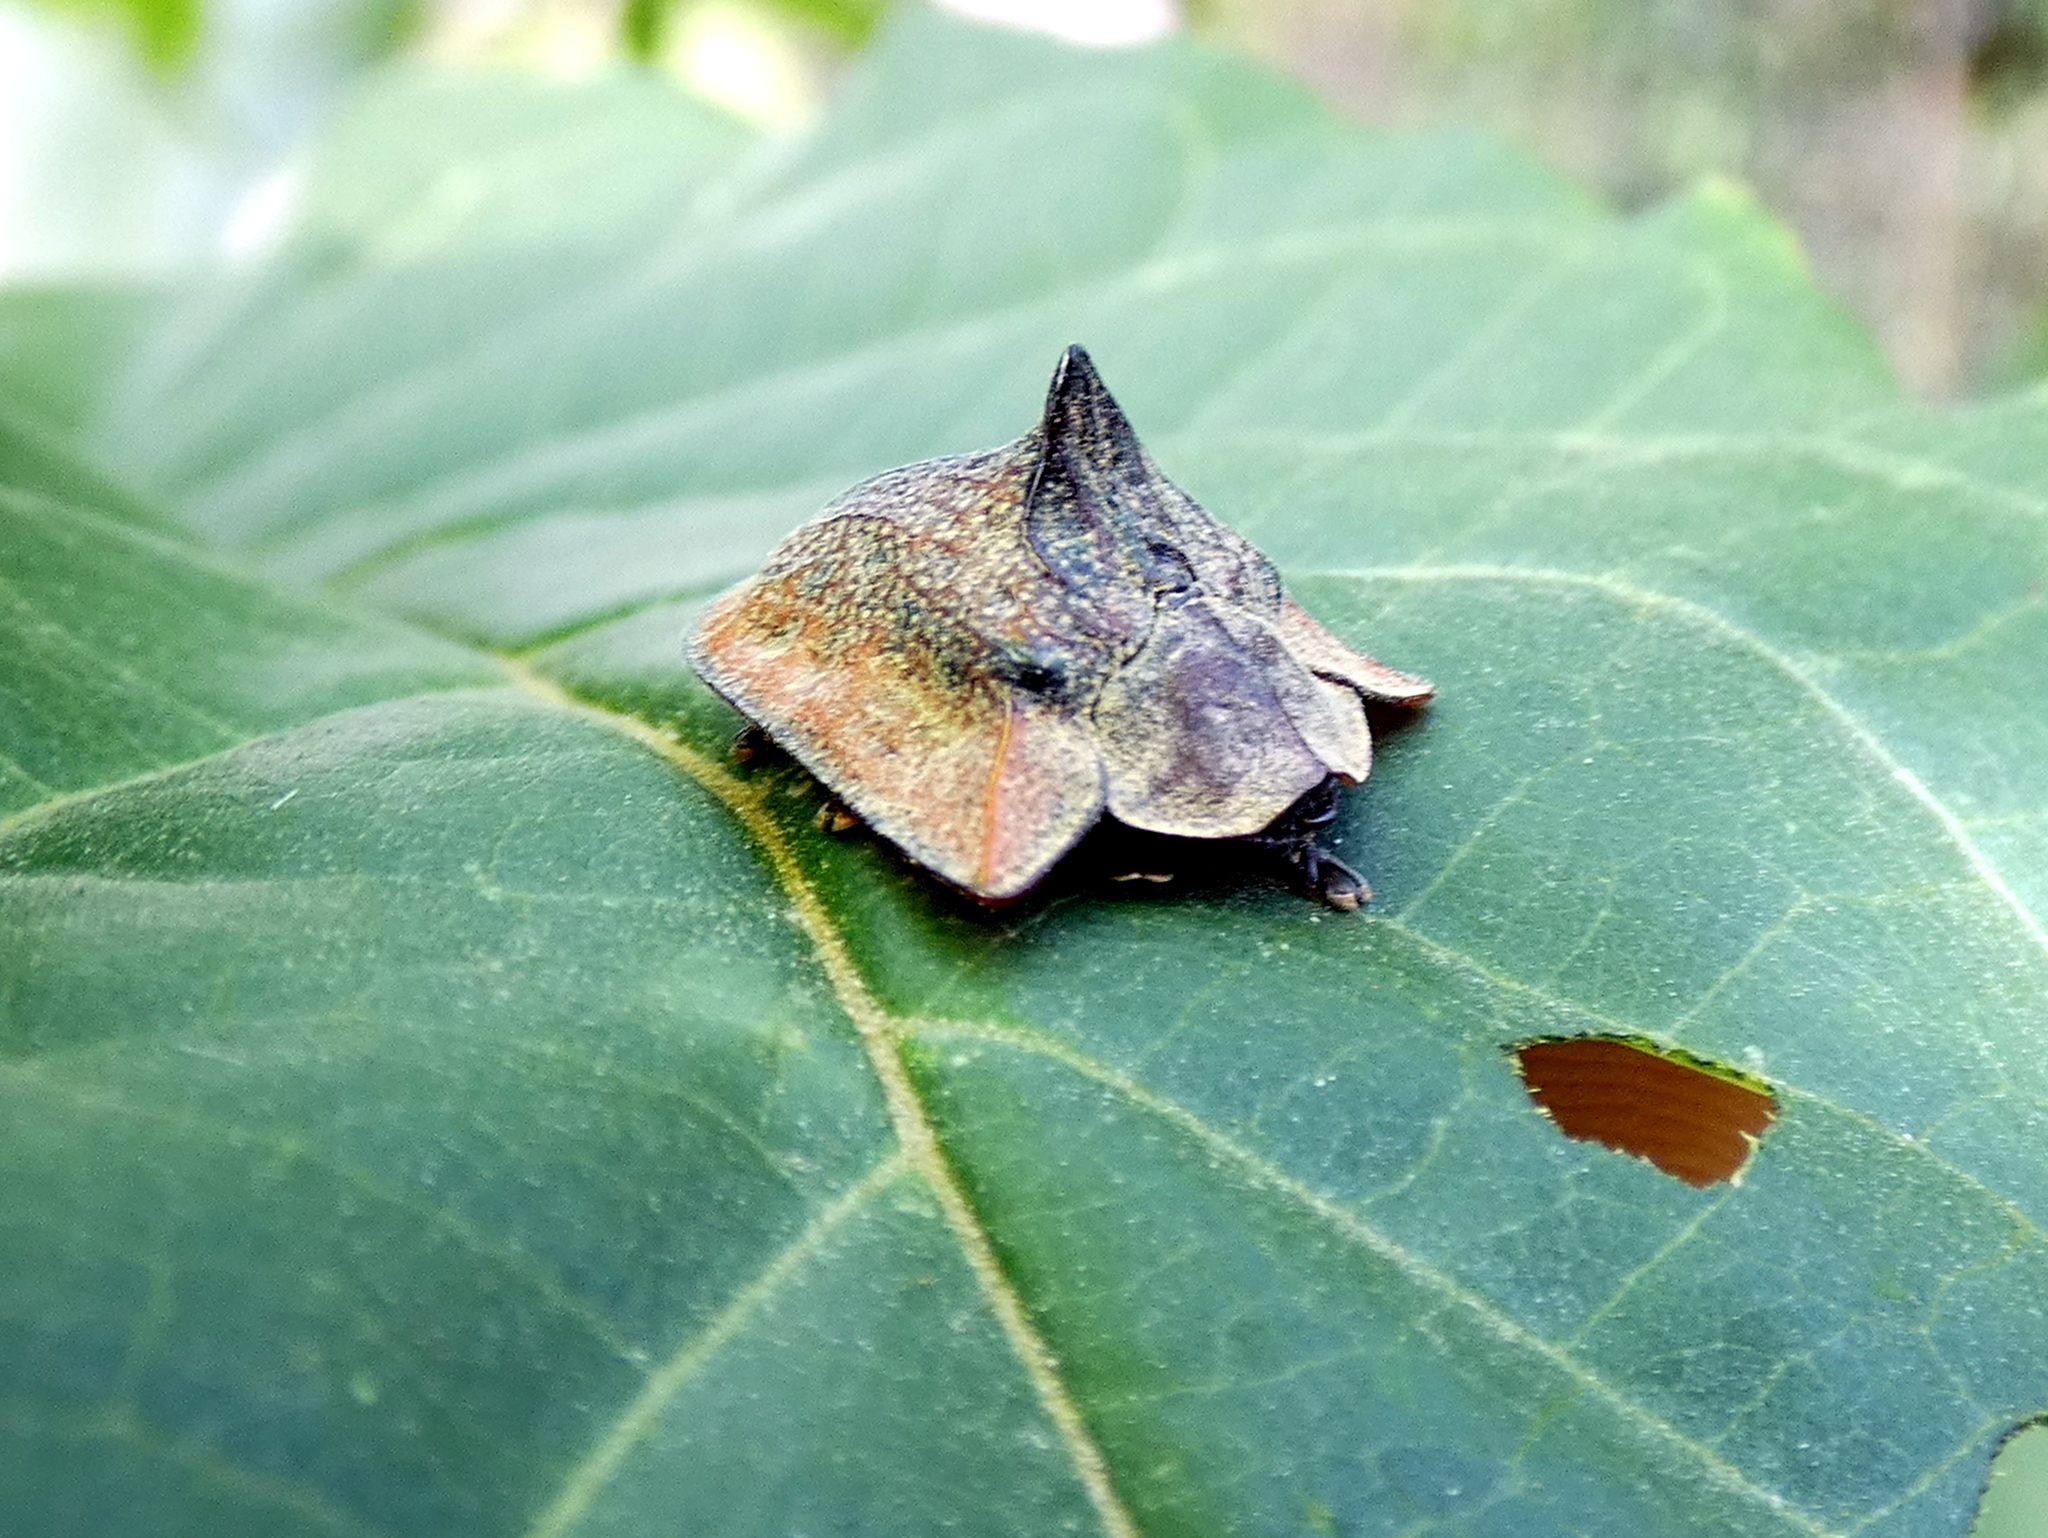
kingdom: Animalia
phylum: Arthropoda
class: Insecta
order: Coleoptera
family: Chrysomelidae
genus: Dorynota
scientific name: Dorynota godmani
